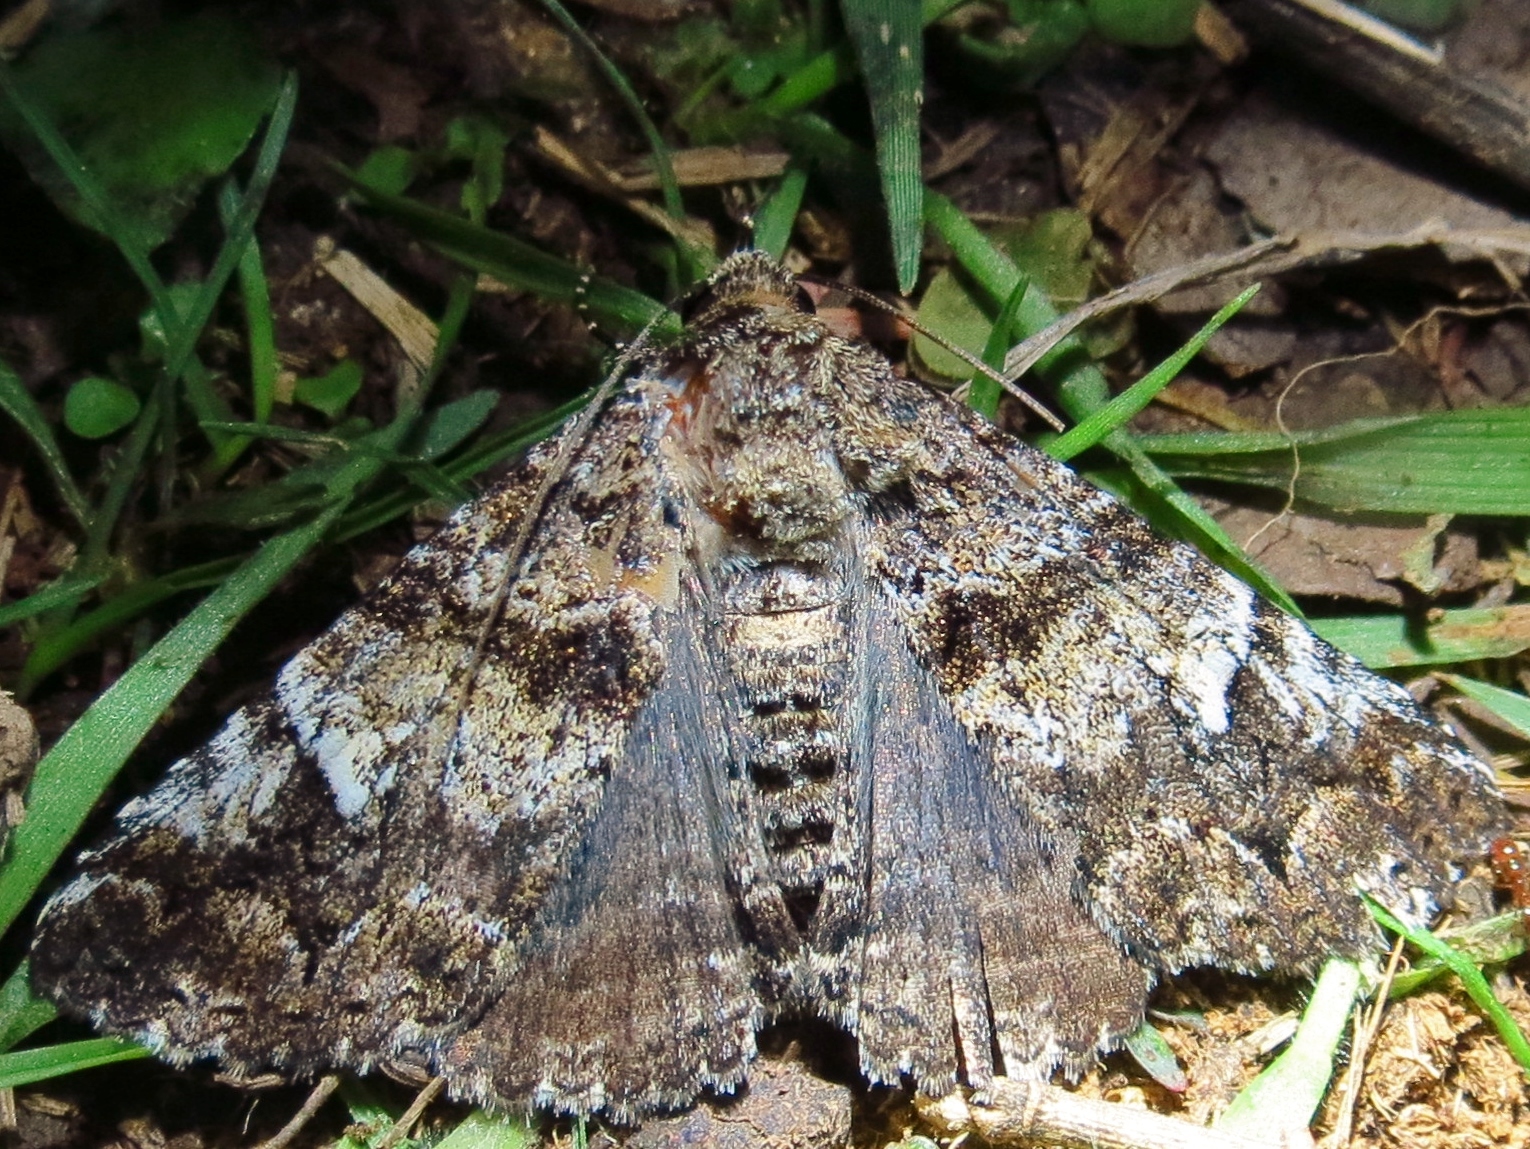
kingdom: Animalia
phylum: Arthropoda
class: Insecta
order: Lepidoptera
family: Erebidae
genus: Metria
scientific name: Metria amella
